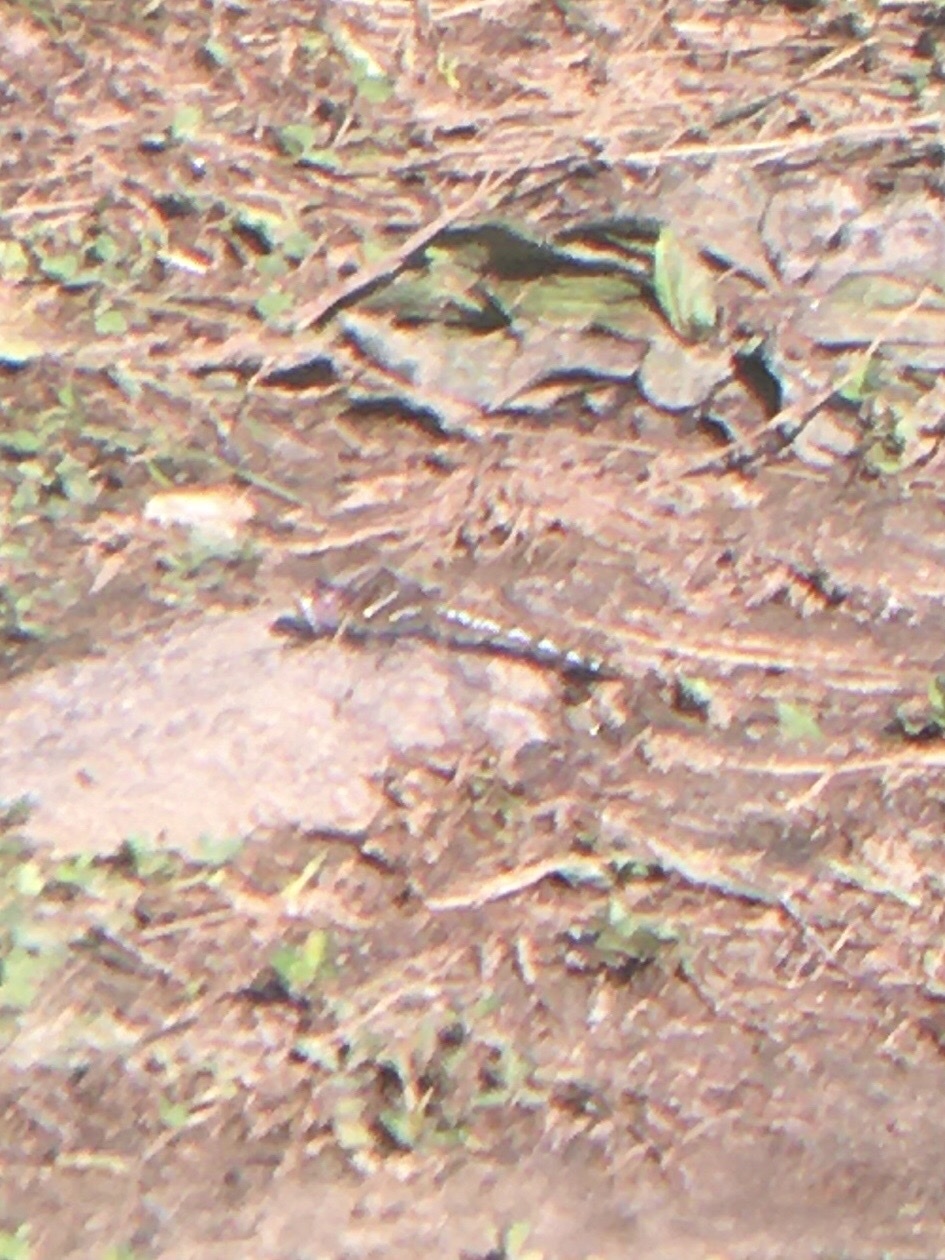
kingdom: Animalia
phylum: Arthropoda
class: Insecta
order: Odonata
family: Libellulidae
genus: Sympetrum
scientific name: Sympetrum corruptum
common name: Variegated meadowhawk
